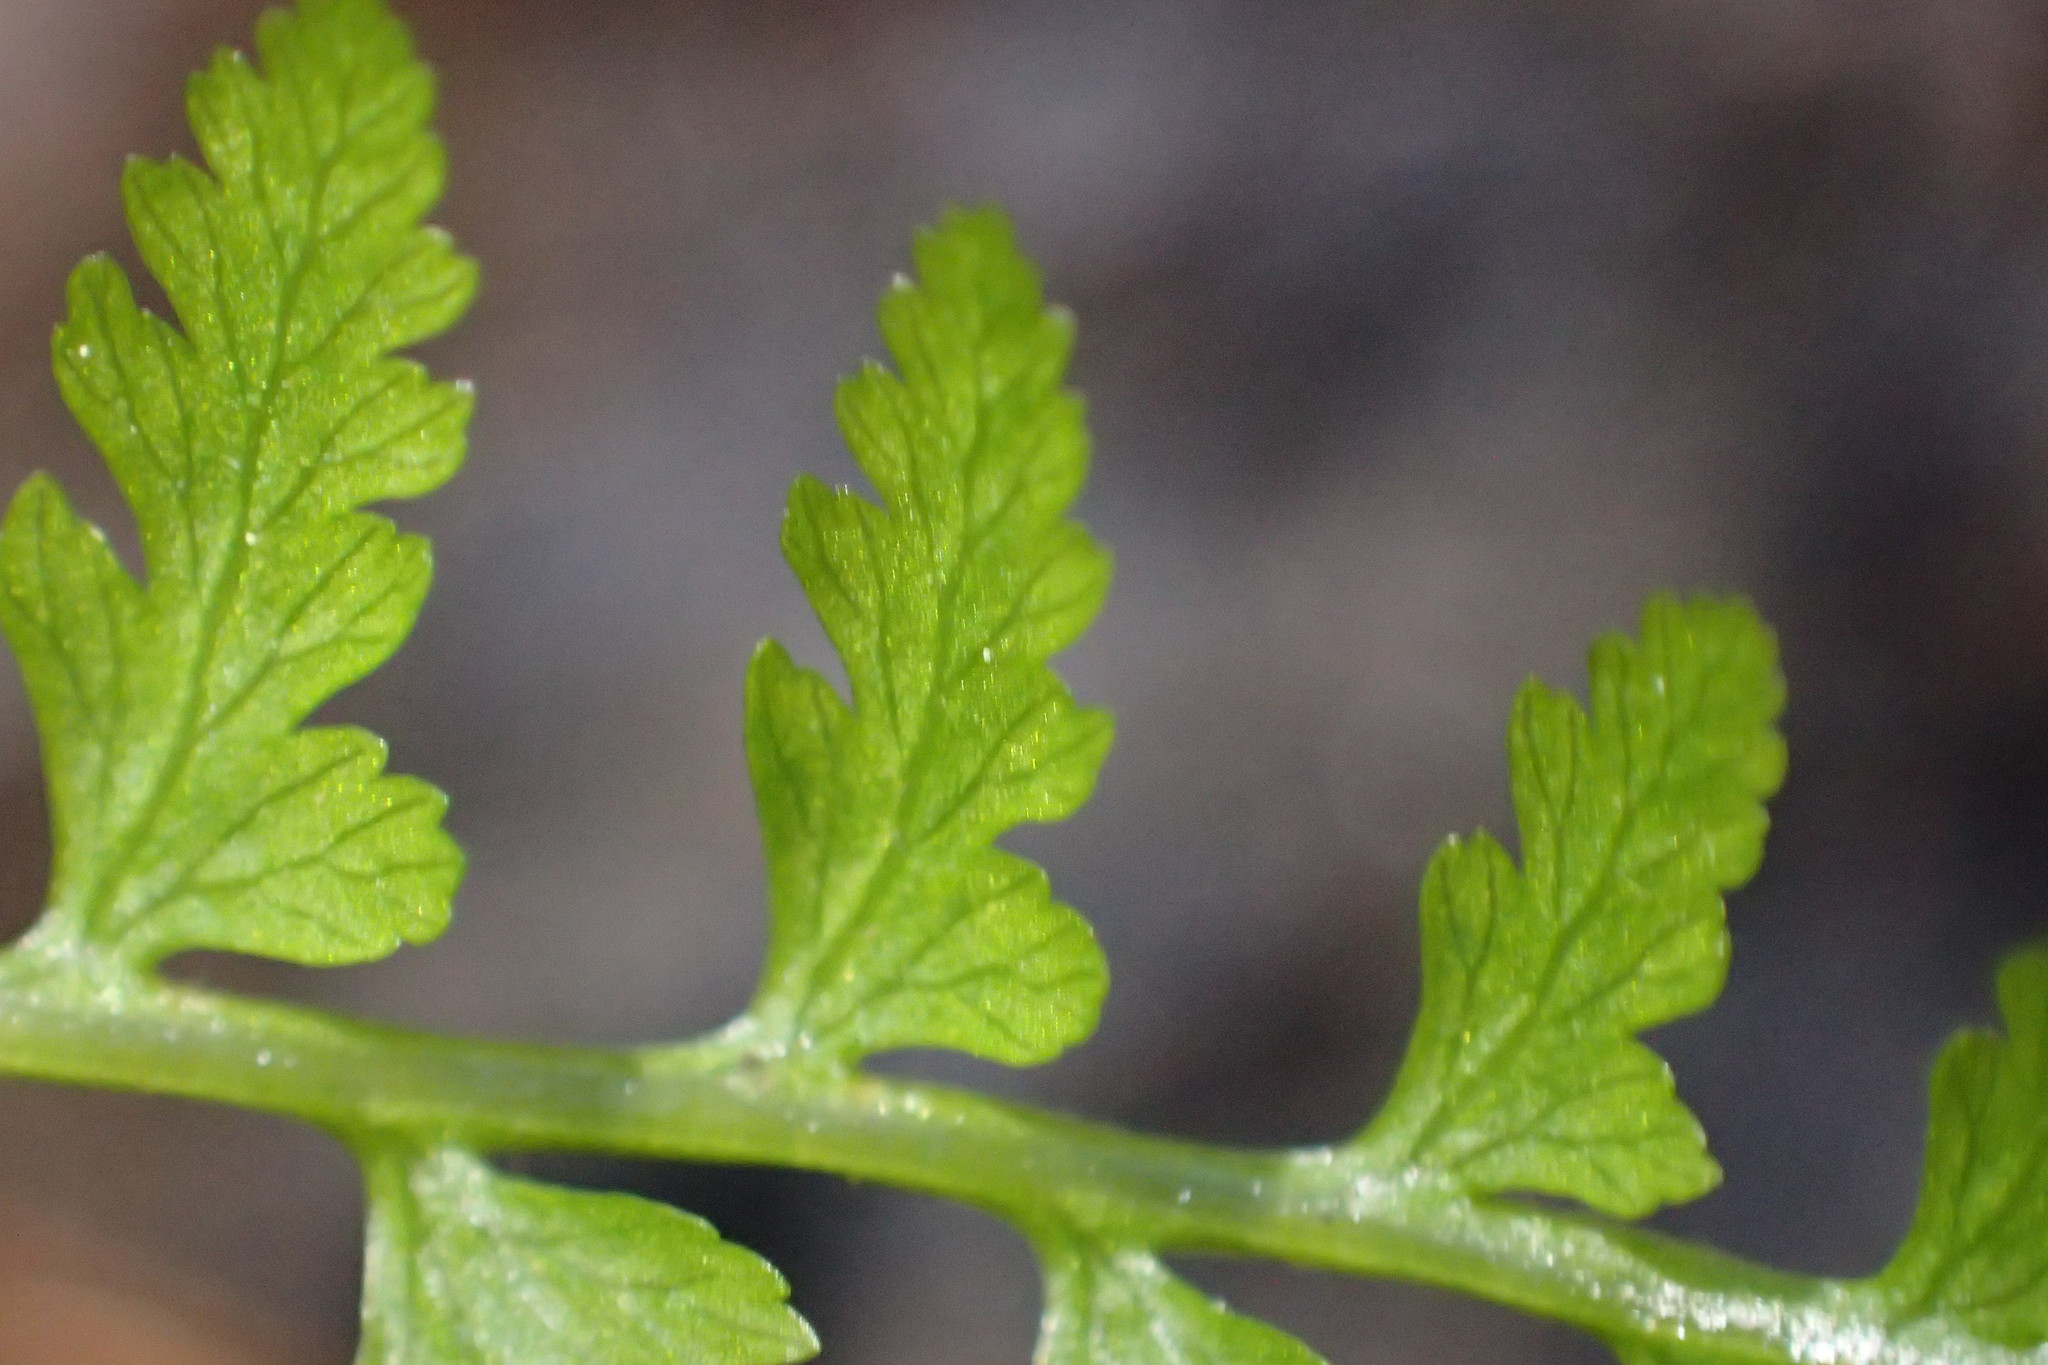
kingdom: Plantae
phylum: Tracheophyta
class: Polypodiopsida
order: Polypodiales
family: Athyriaceae
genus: Athyrium
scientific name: Athyrium asplenioides
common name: Southern lady fern
